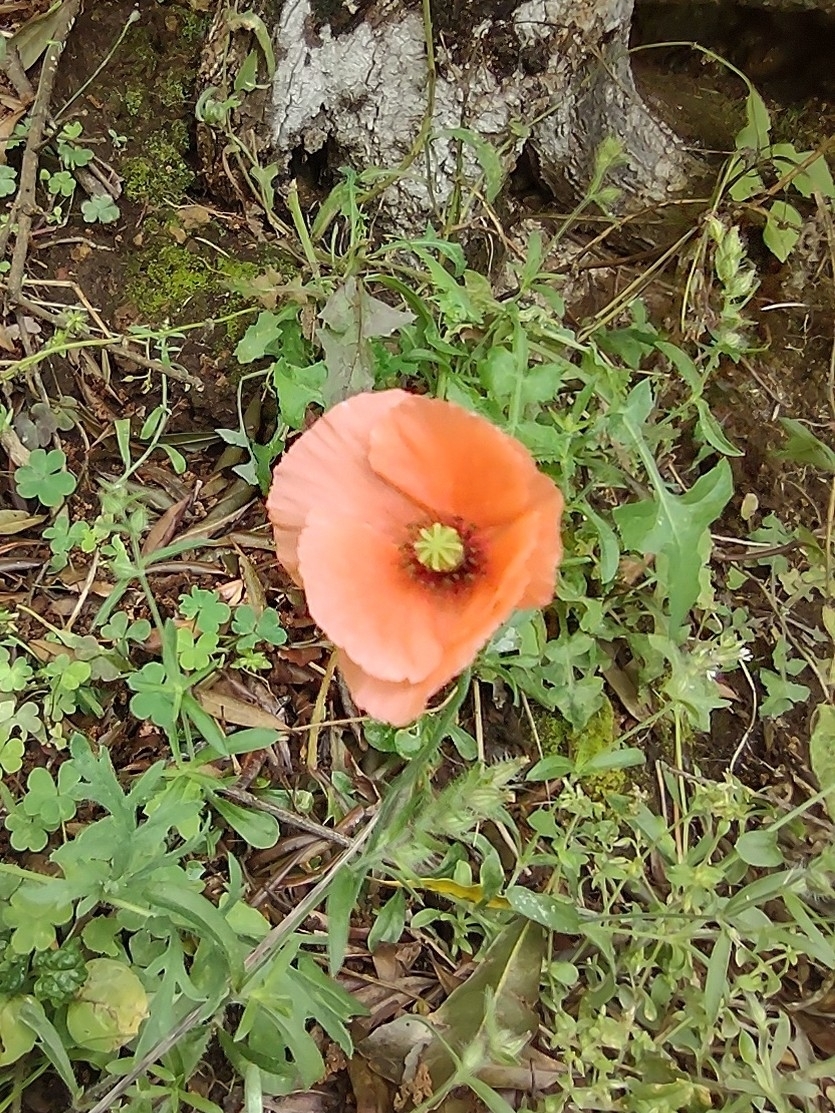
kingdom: Plantae
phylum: Tracheophyta
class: Magnoliopsida
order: Ranunculales
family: Papaveraceae
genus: Papaver
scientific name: Papaver dubium
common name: Long-headed poppy
